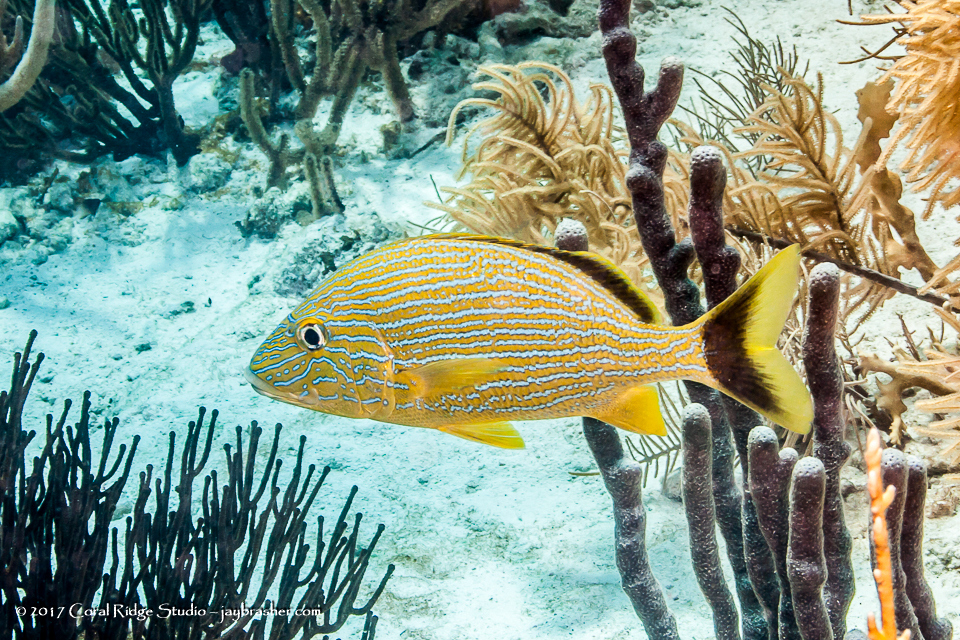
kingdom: Animalia
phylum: Chordata
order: Perciformes
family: Haemulidae
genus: Haemulon
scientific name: Haemulon sciurus
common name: Bluestriped grunt
